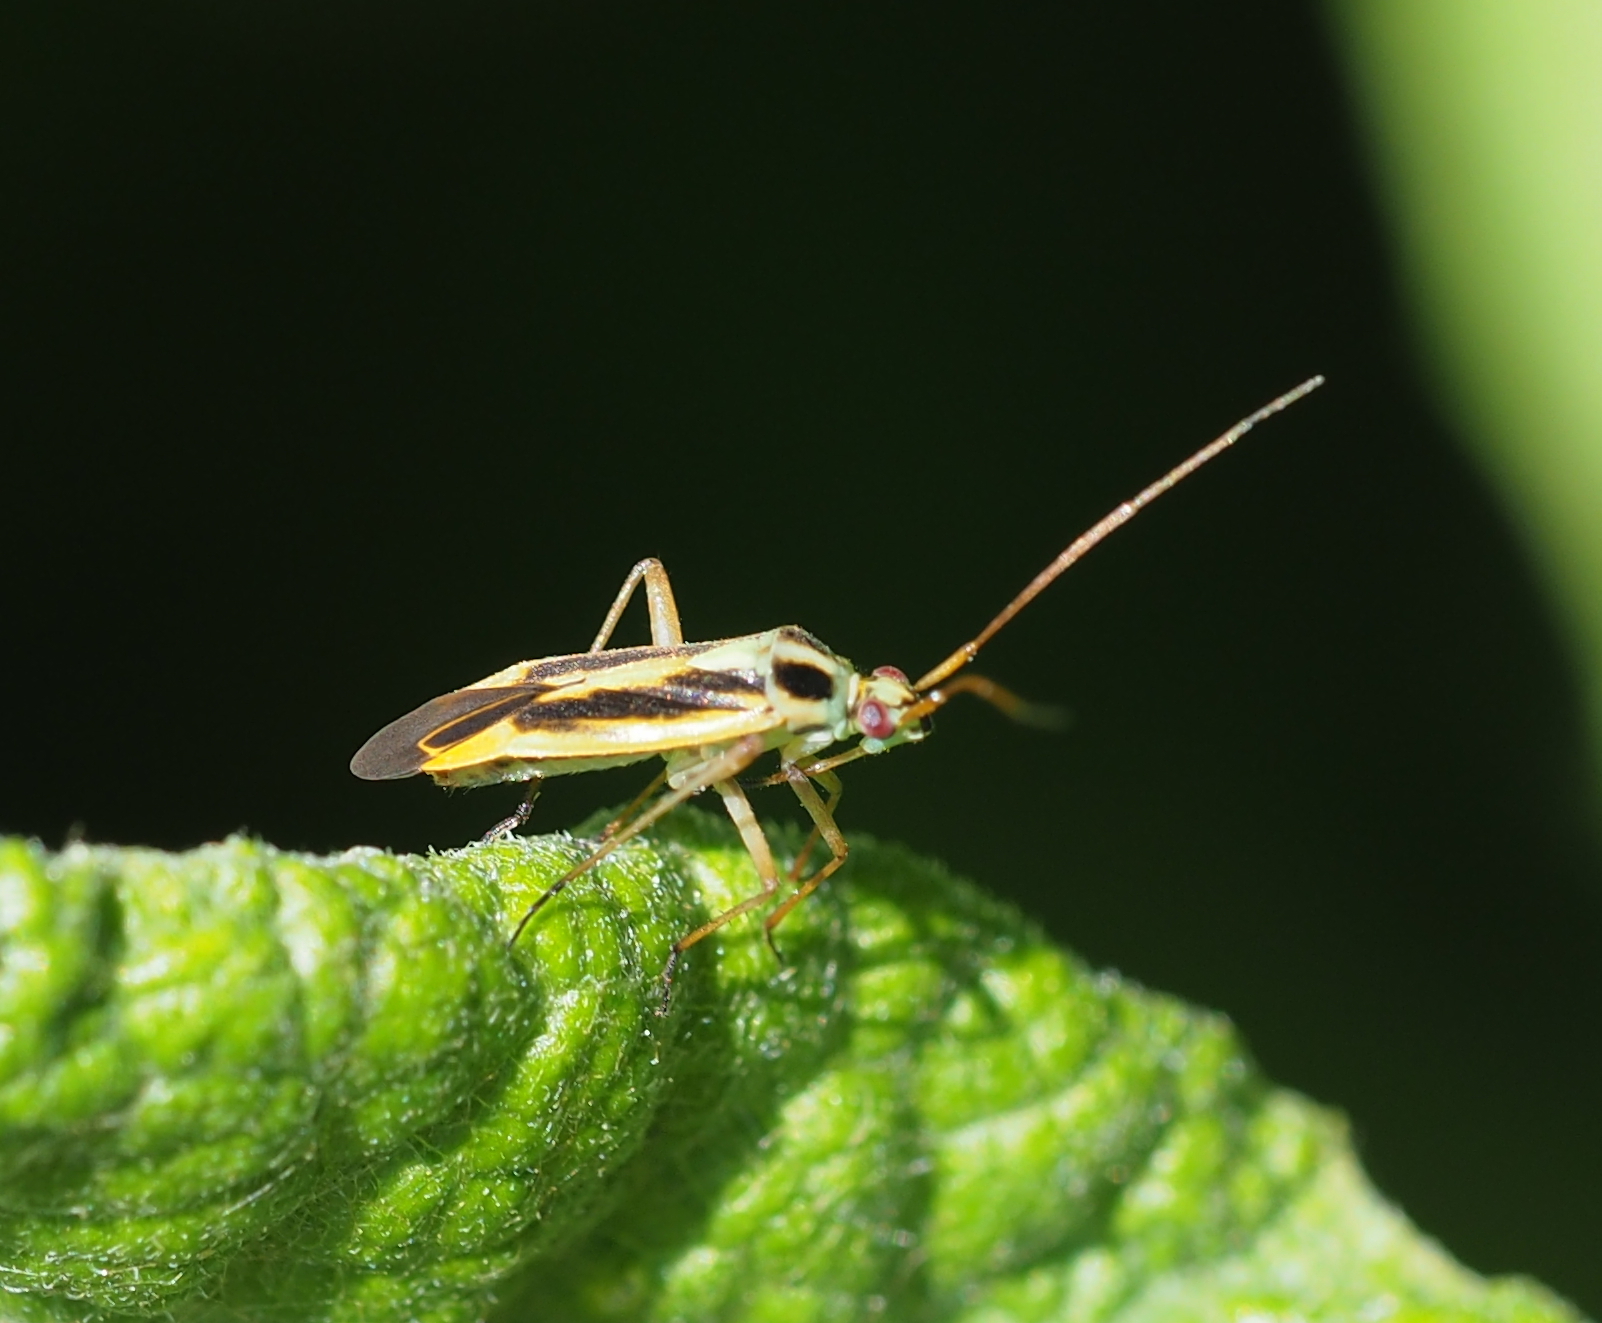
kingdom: Animalia
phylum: Arthropoda
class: Insecta
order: Hemiptera
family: Miridae
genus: Stenotus
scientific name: Stenotus binotatus
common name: Plant bug
